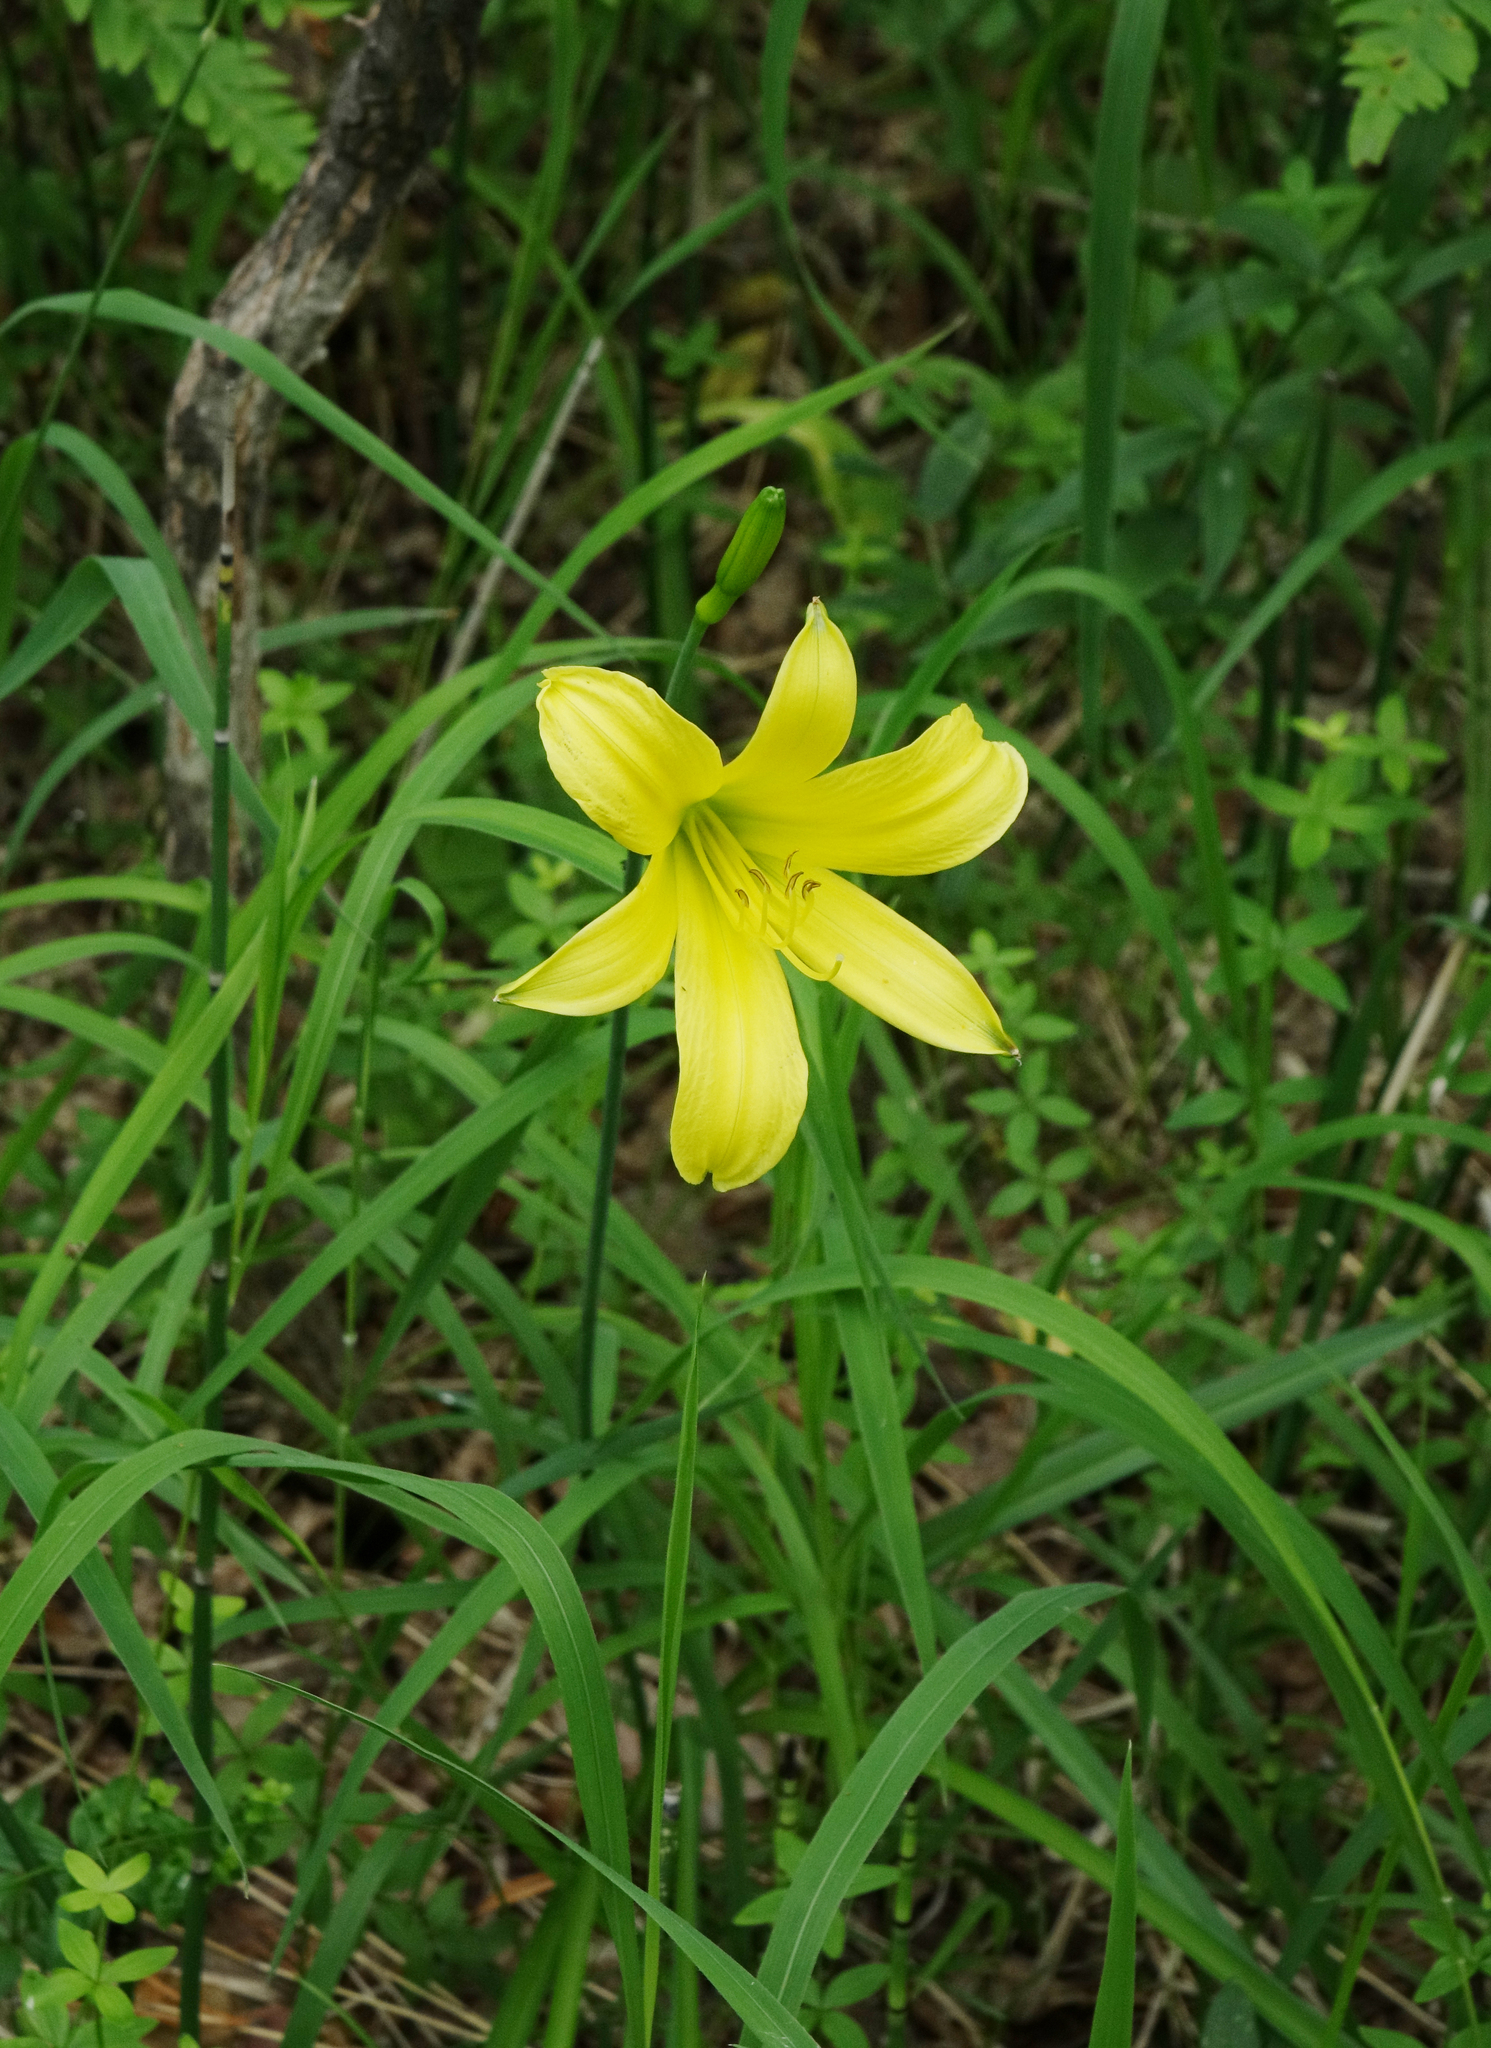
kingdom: Plantae
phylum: Tracheophyta
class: Liliopsida
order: Asparagales
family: Asphodelaceae
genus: Hemerocallis
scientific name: Hemerocallis minor
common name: Small daylily
